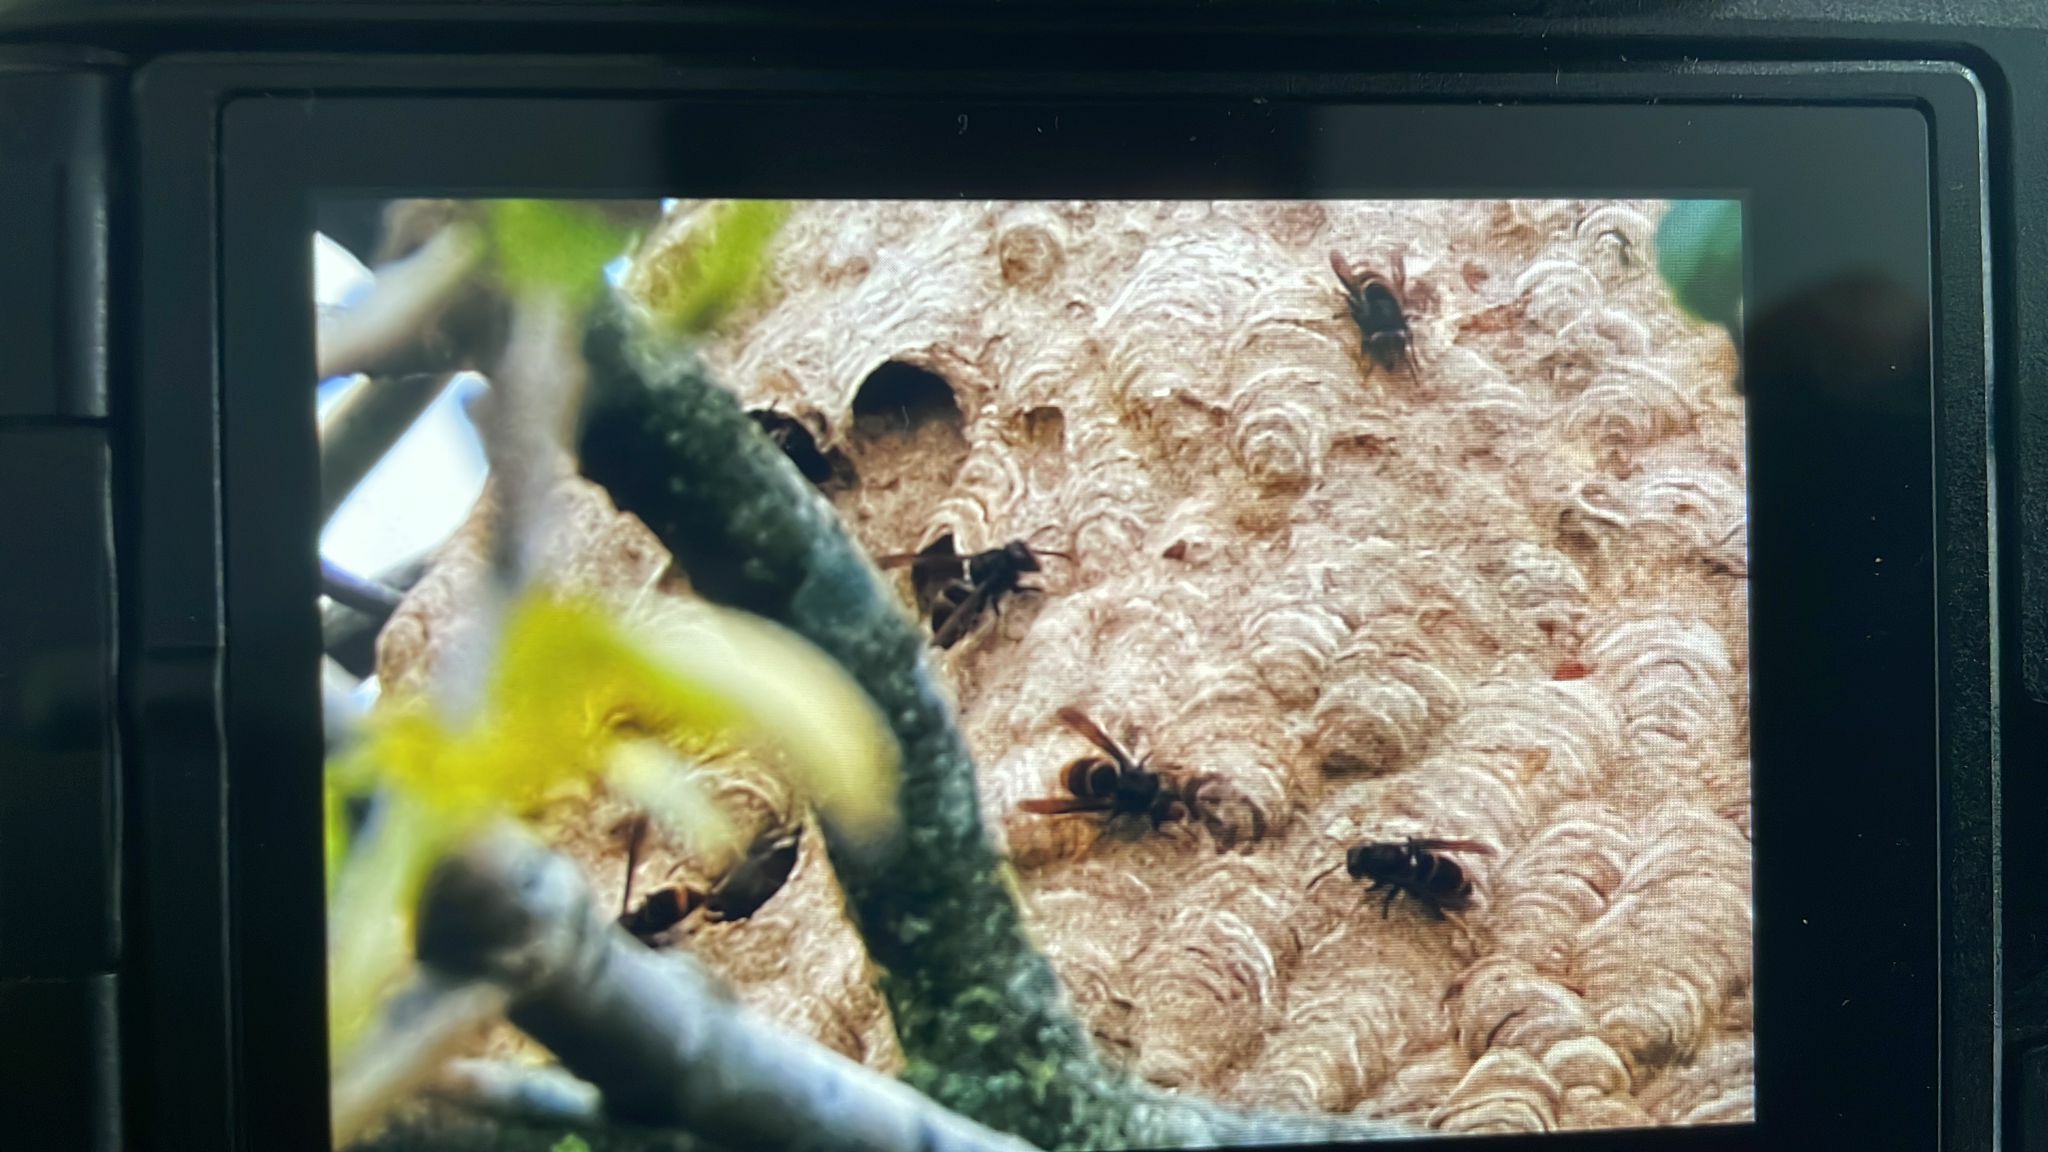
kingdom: Animalia
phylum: Arthropoda
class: Insecta
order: Hymenoptera
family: Vespidae
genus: Vespa
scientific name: Vespa velutina
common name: Asian hornet
